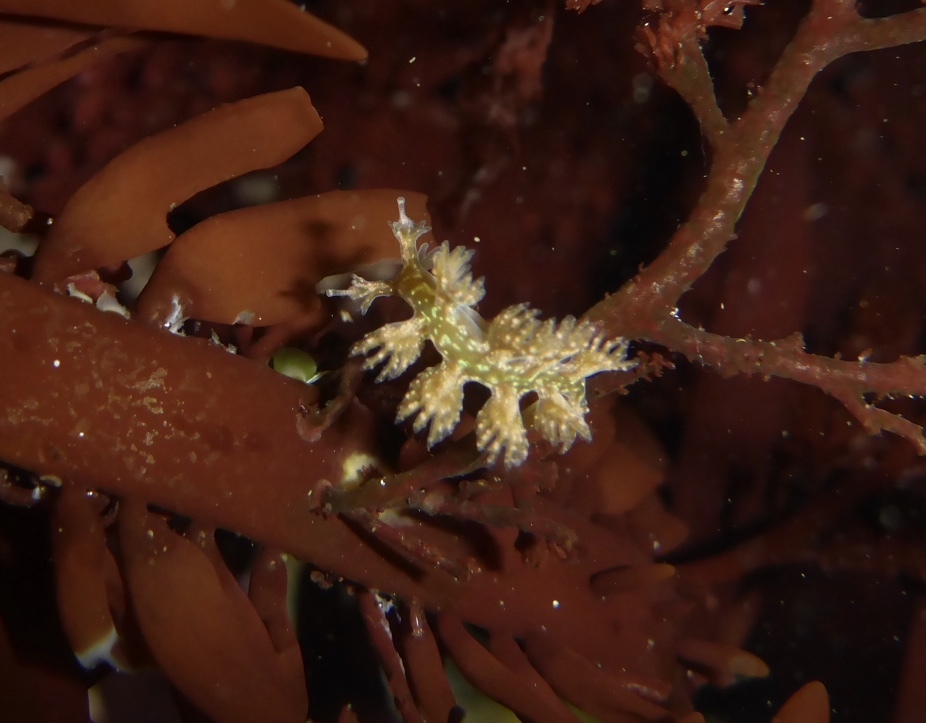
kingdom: Animalia
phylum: Mollusca
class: Gastropoda
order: Nudibranchia
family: Hancockiidae
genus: Hancockia
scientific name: Hancockia californica
